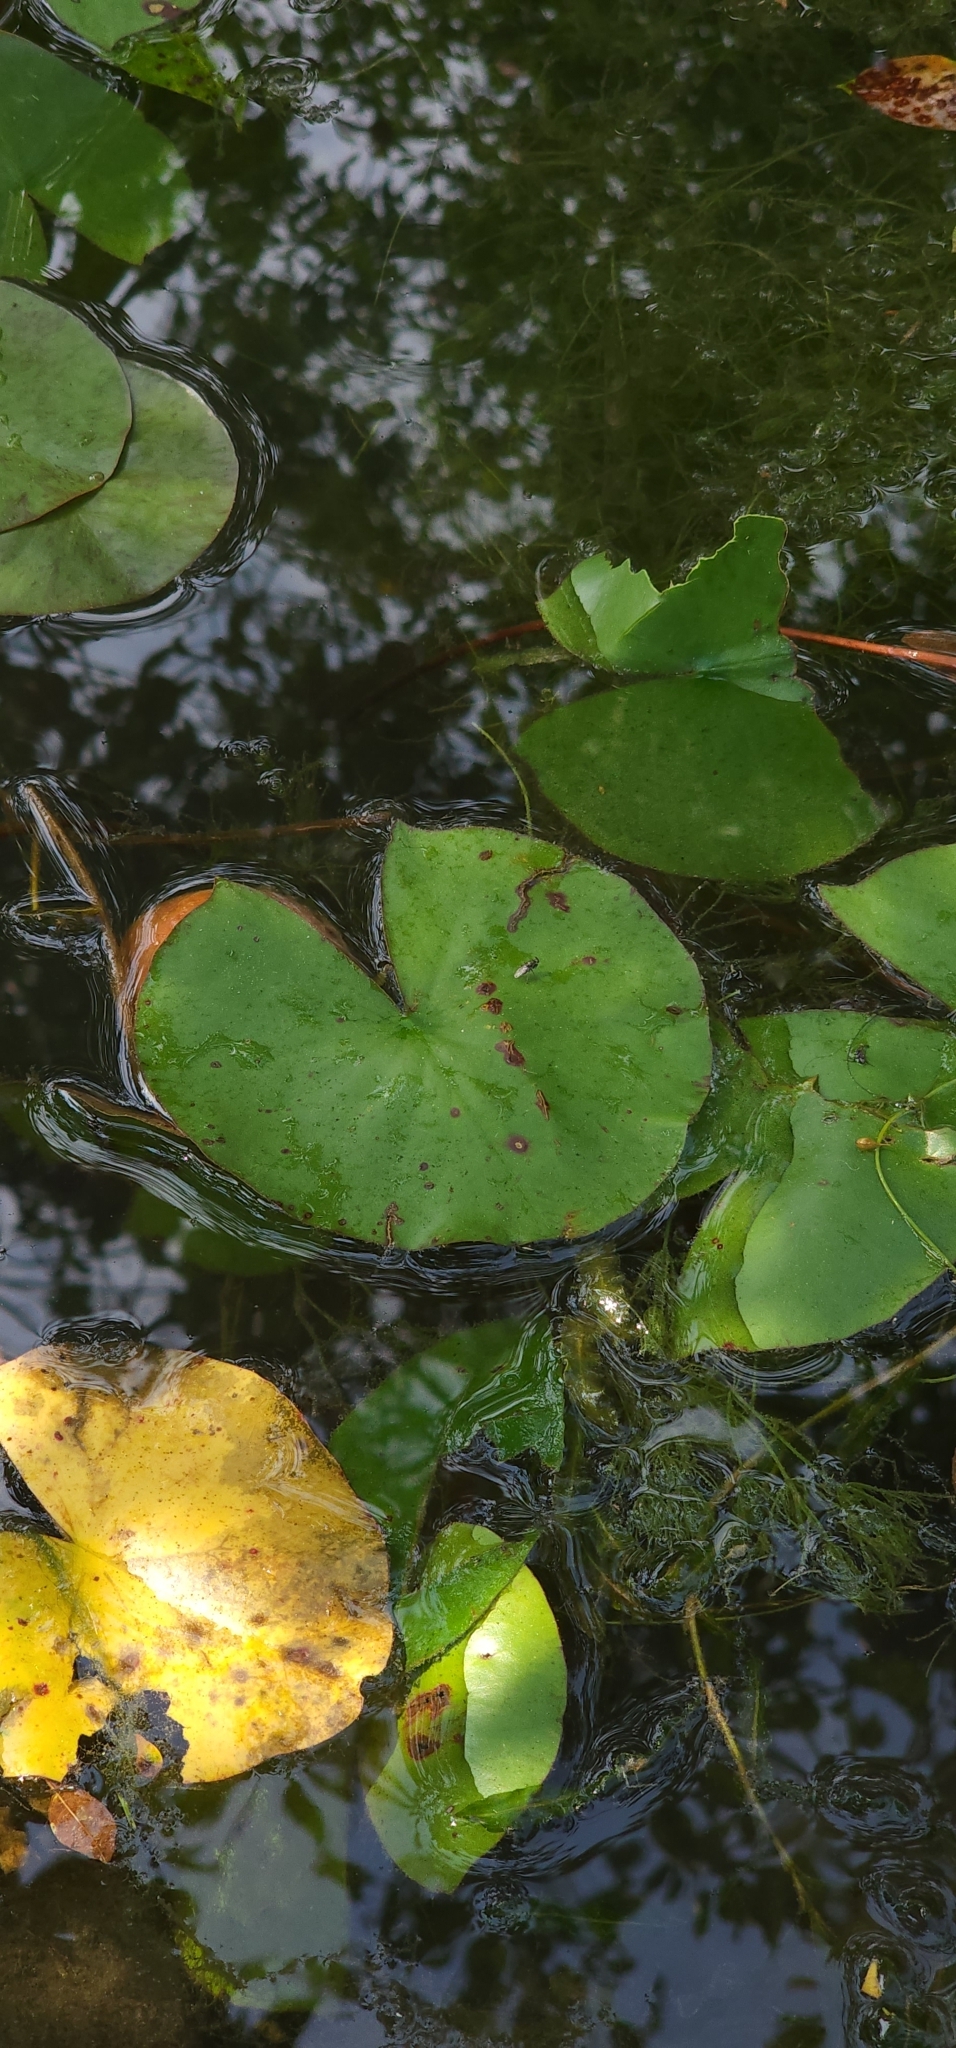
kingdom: Plantae
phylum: Tracheophyta
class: Magnoliopsida
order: Nymphaeales
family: Nymphaeaceae
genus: Nymphaea
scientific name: Nymphaea odorata
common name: Fragrant water-lily
